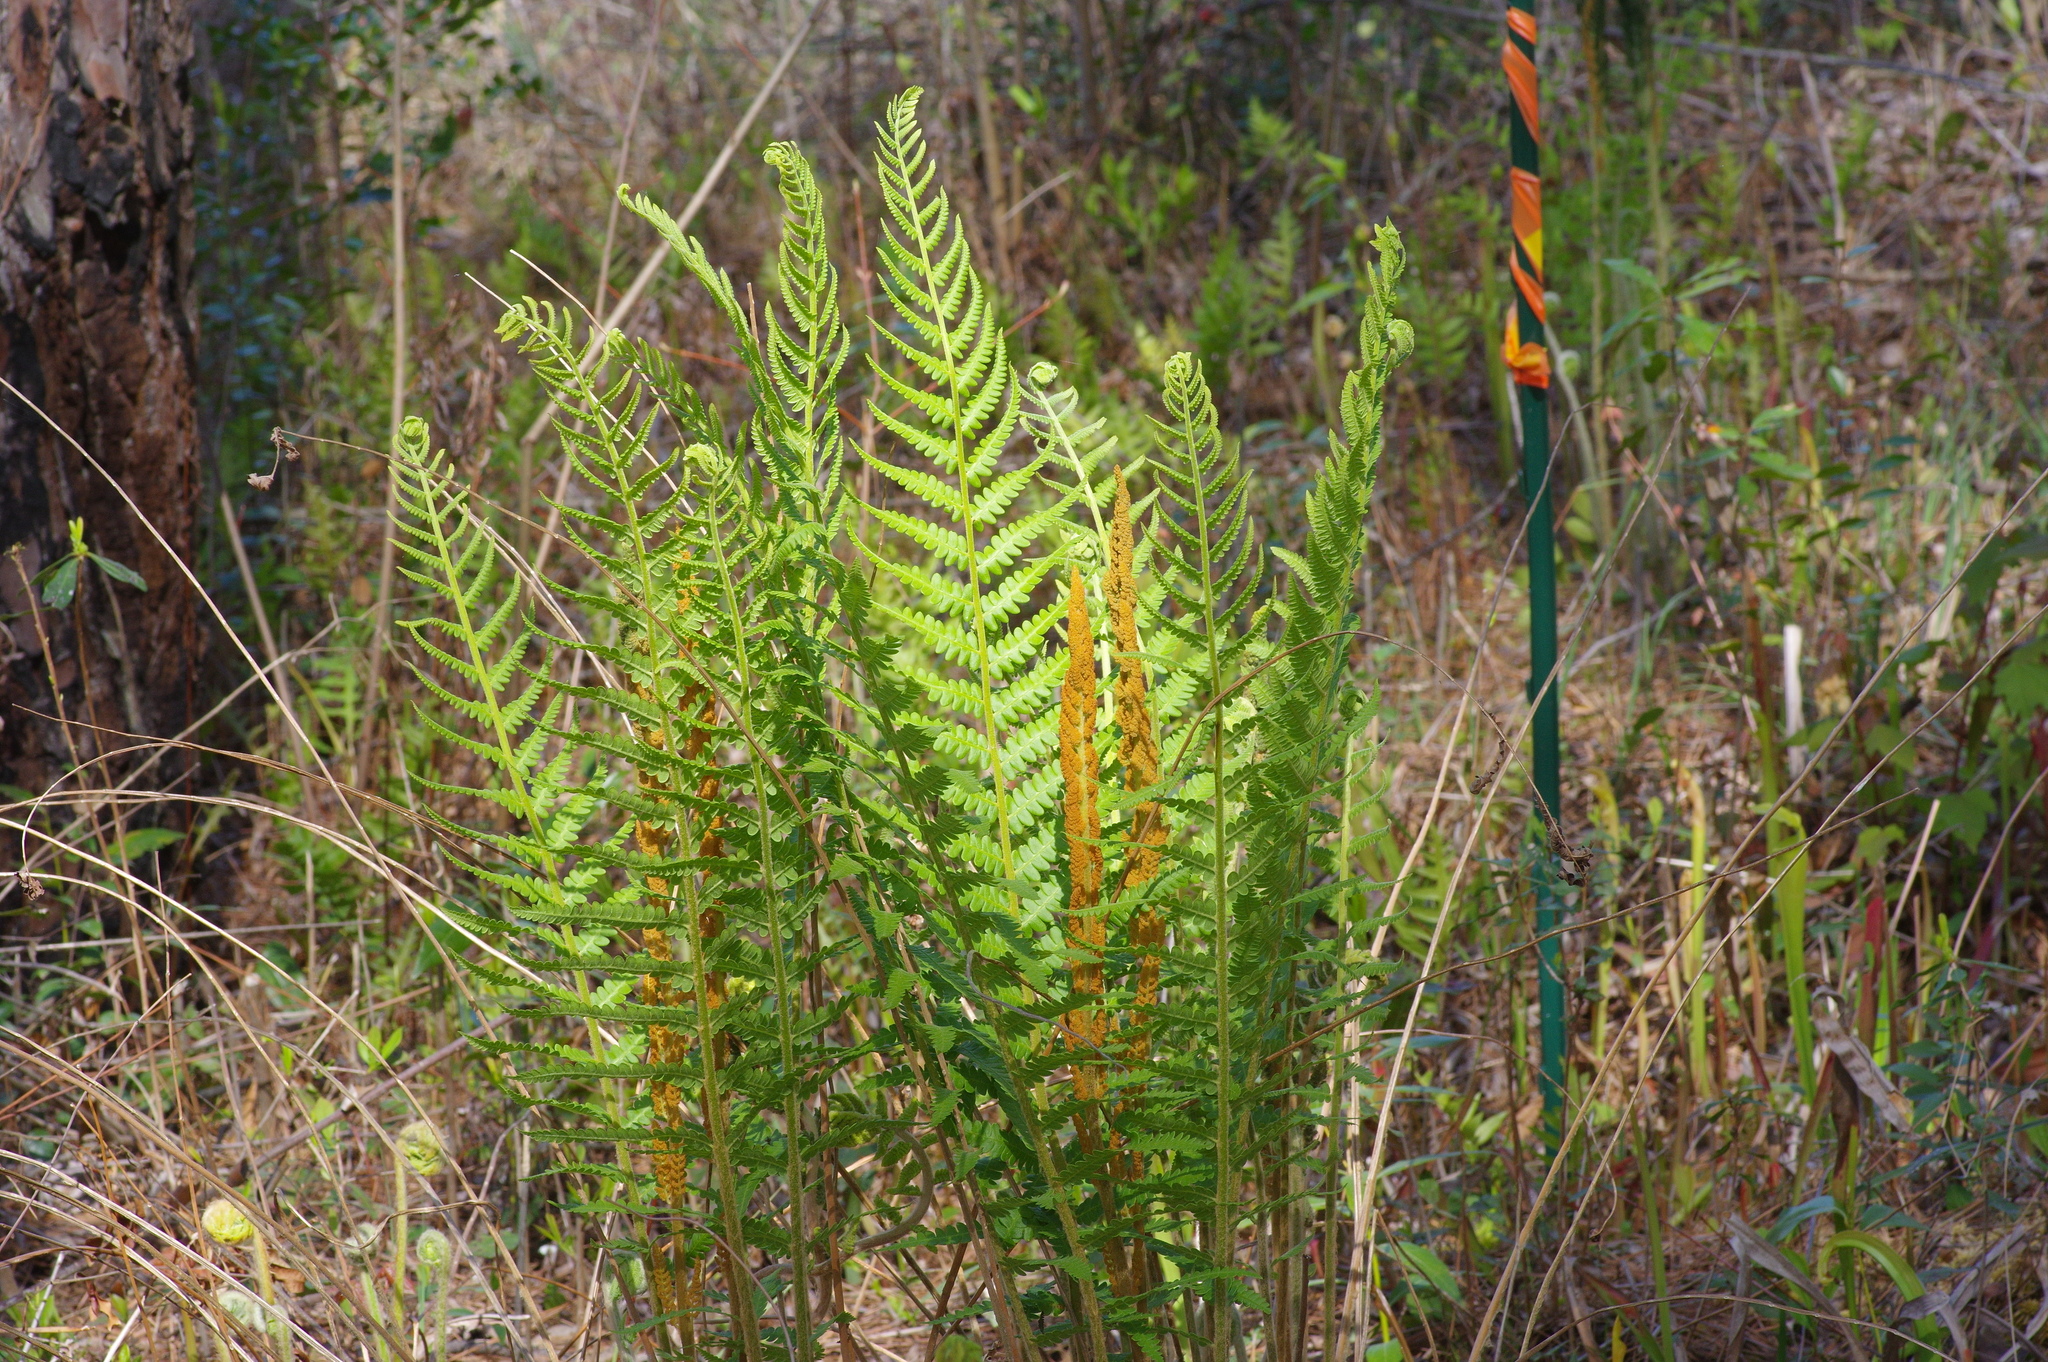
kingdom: Plantae
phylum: Tracheophyta
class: Polypodiopsida
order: Osmundales
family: Osmundaceae
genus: Osmundastrum
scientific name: Osmundastrum cinnamomeum
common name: Cinnamon fern
